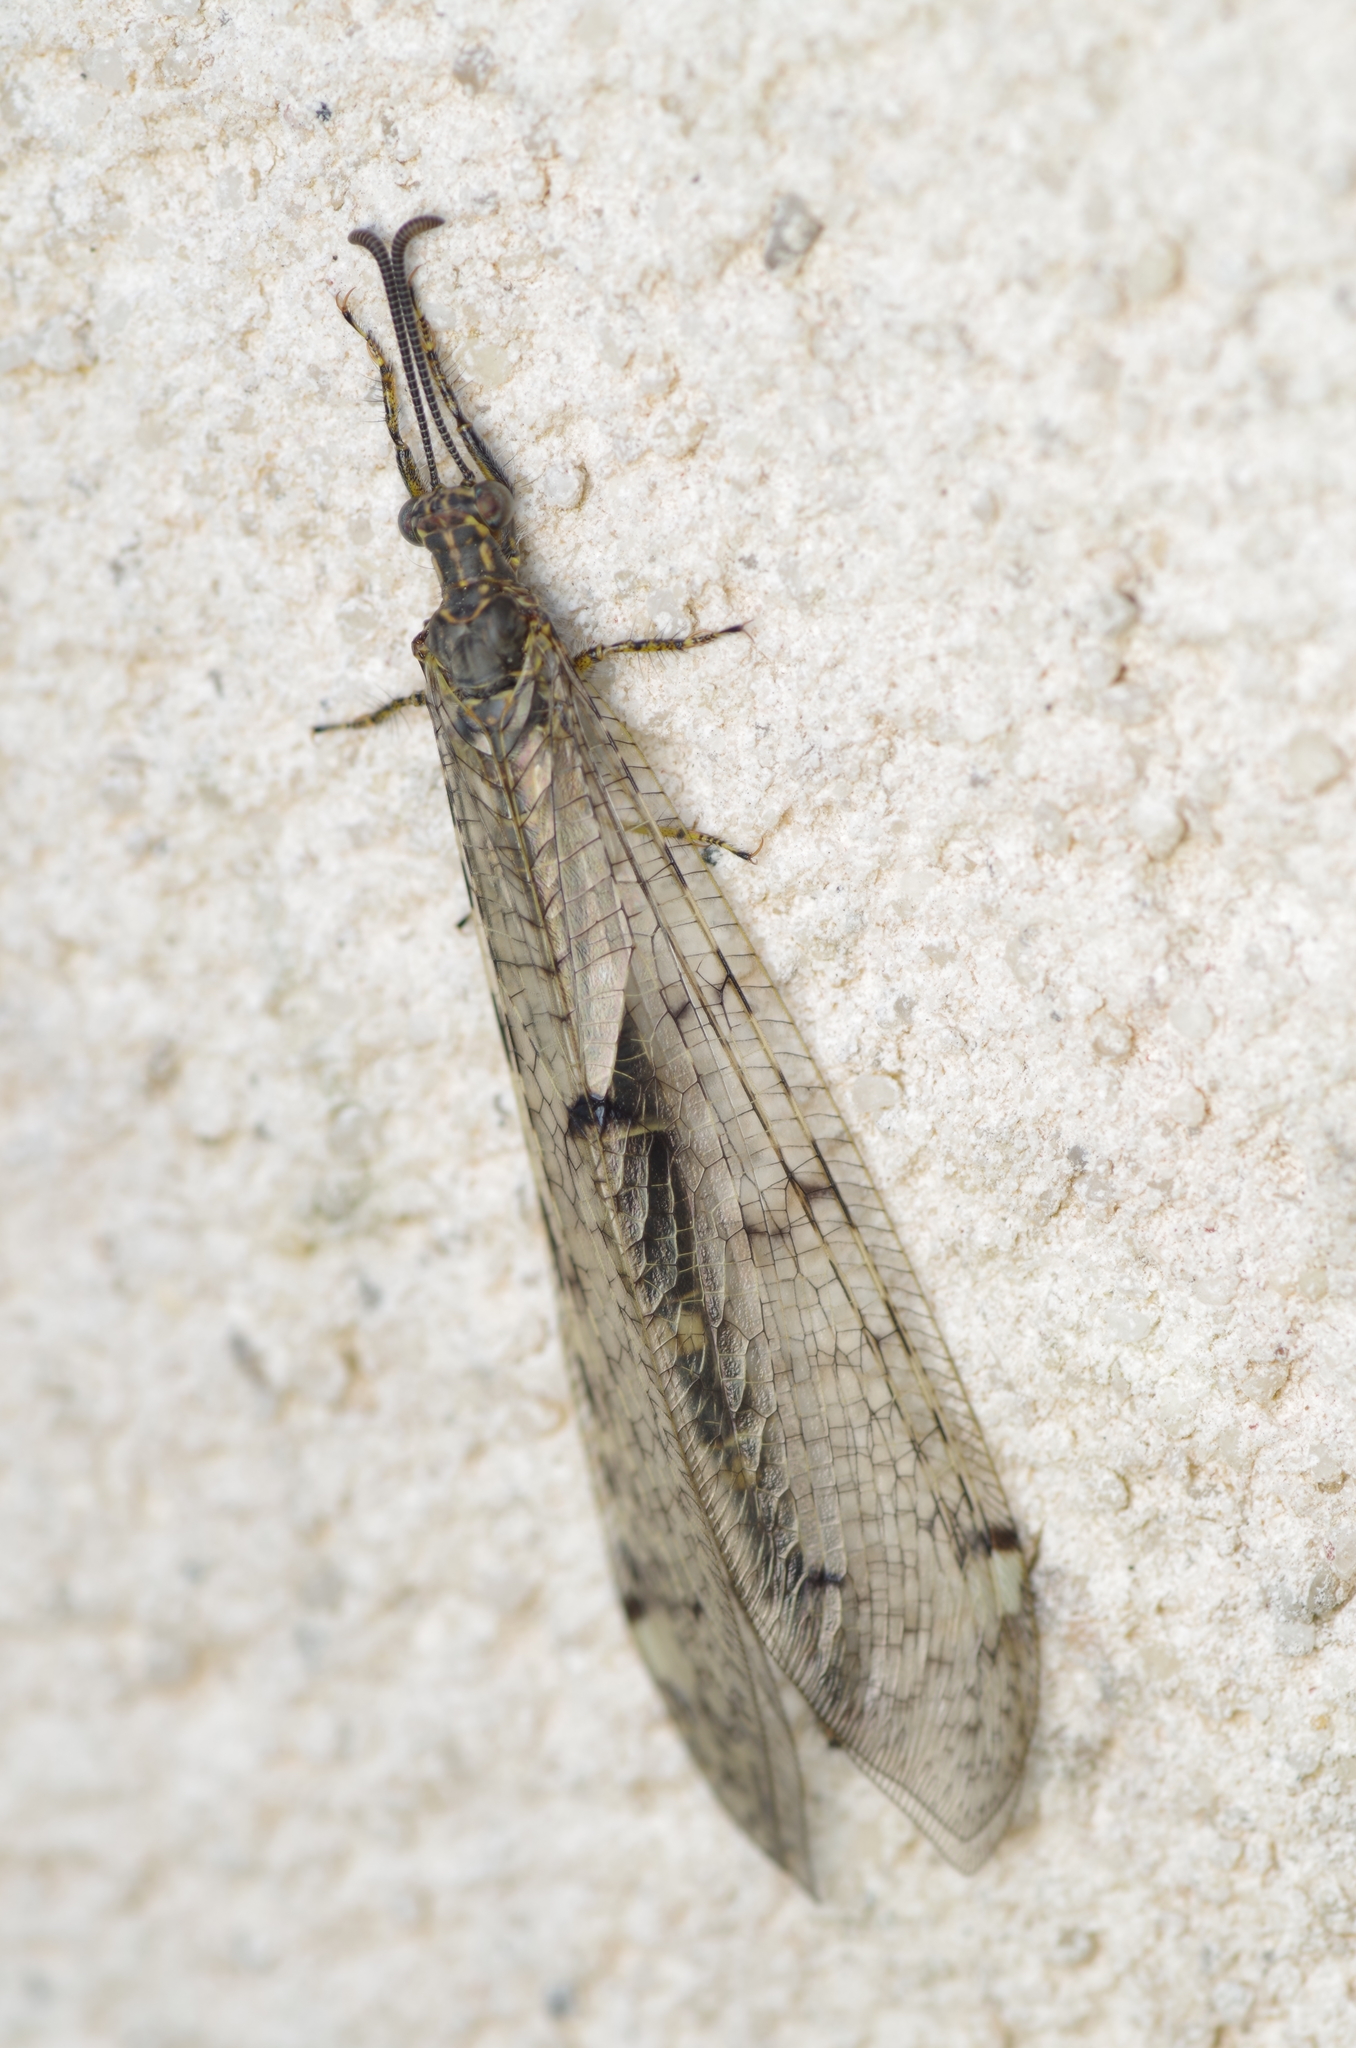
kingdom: Animalia
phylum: Arthropoda
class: Insecta
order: Neuroptera
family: Myrmeleontidae
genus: Distoleon
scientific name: Distoleon tetragrammicus
